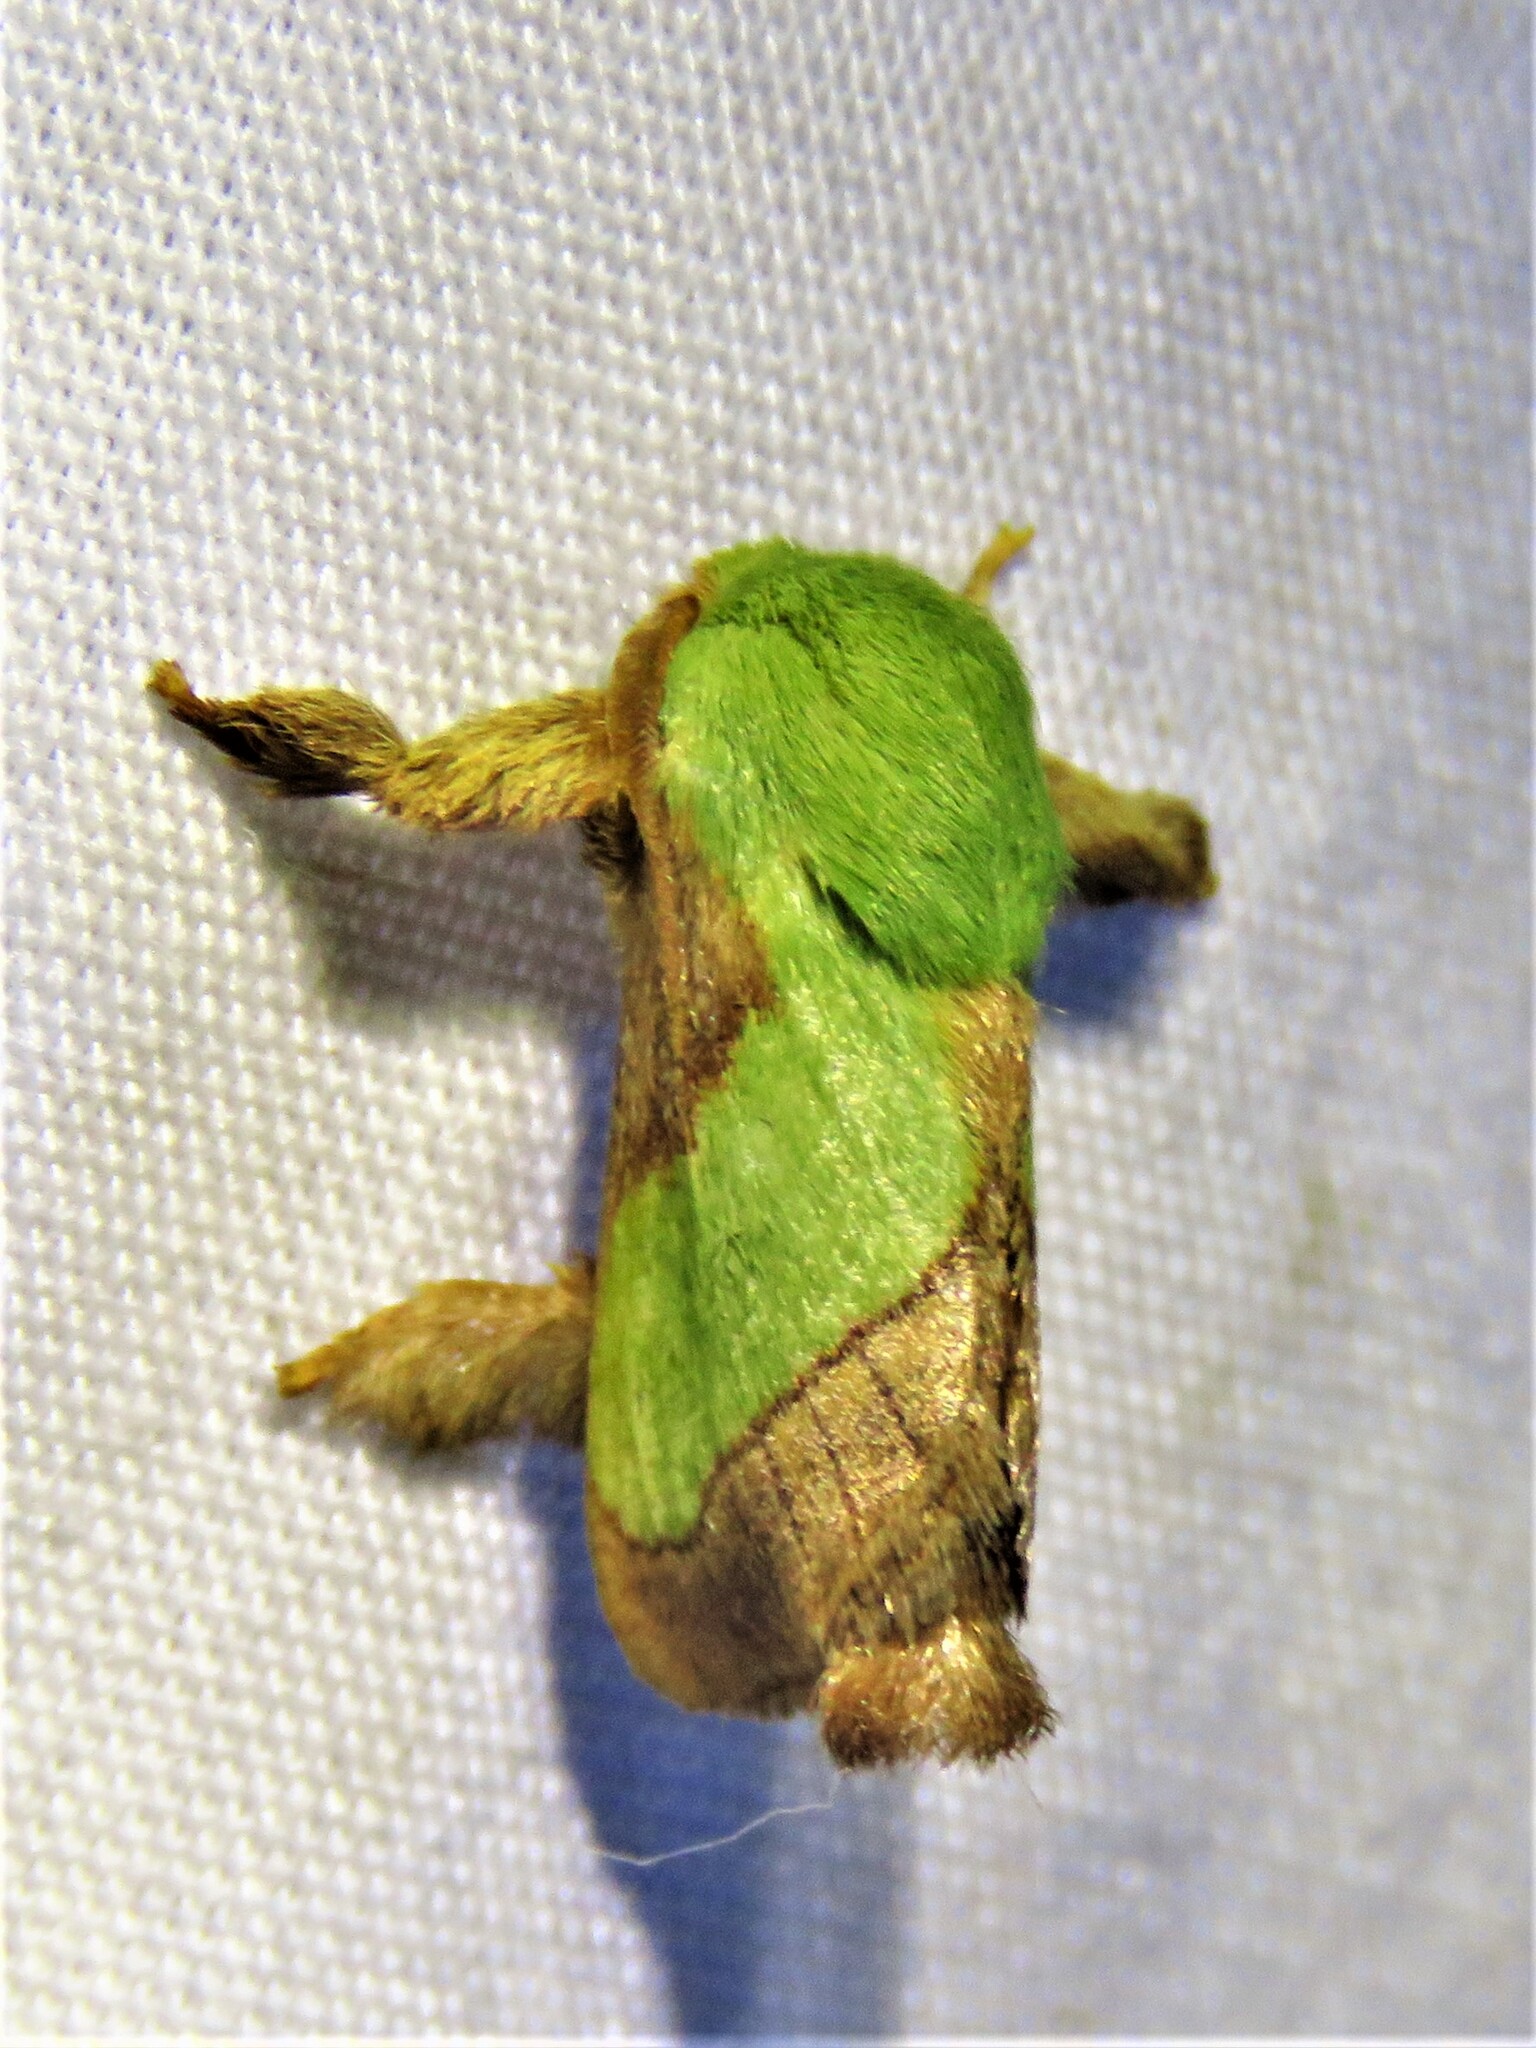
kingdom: Animalia
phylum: Arthropoda
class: Insecta
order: Lepidoptera
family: Limacodidae
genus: Parasa
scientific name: Parasa chloris
